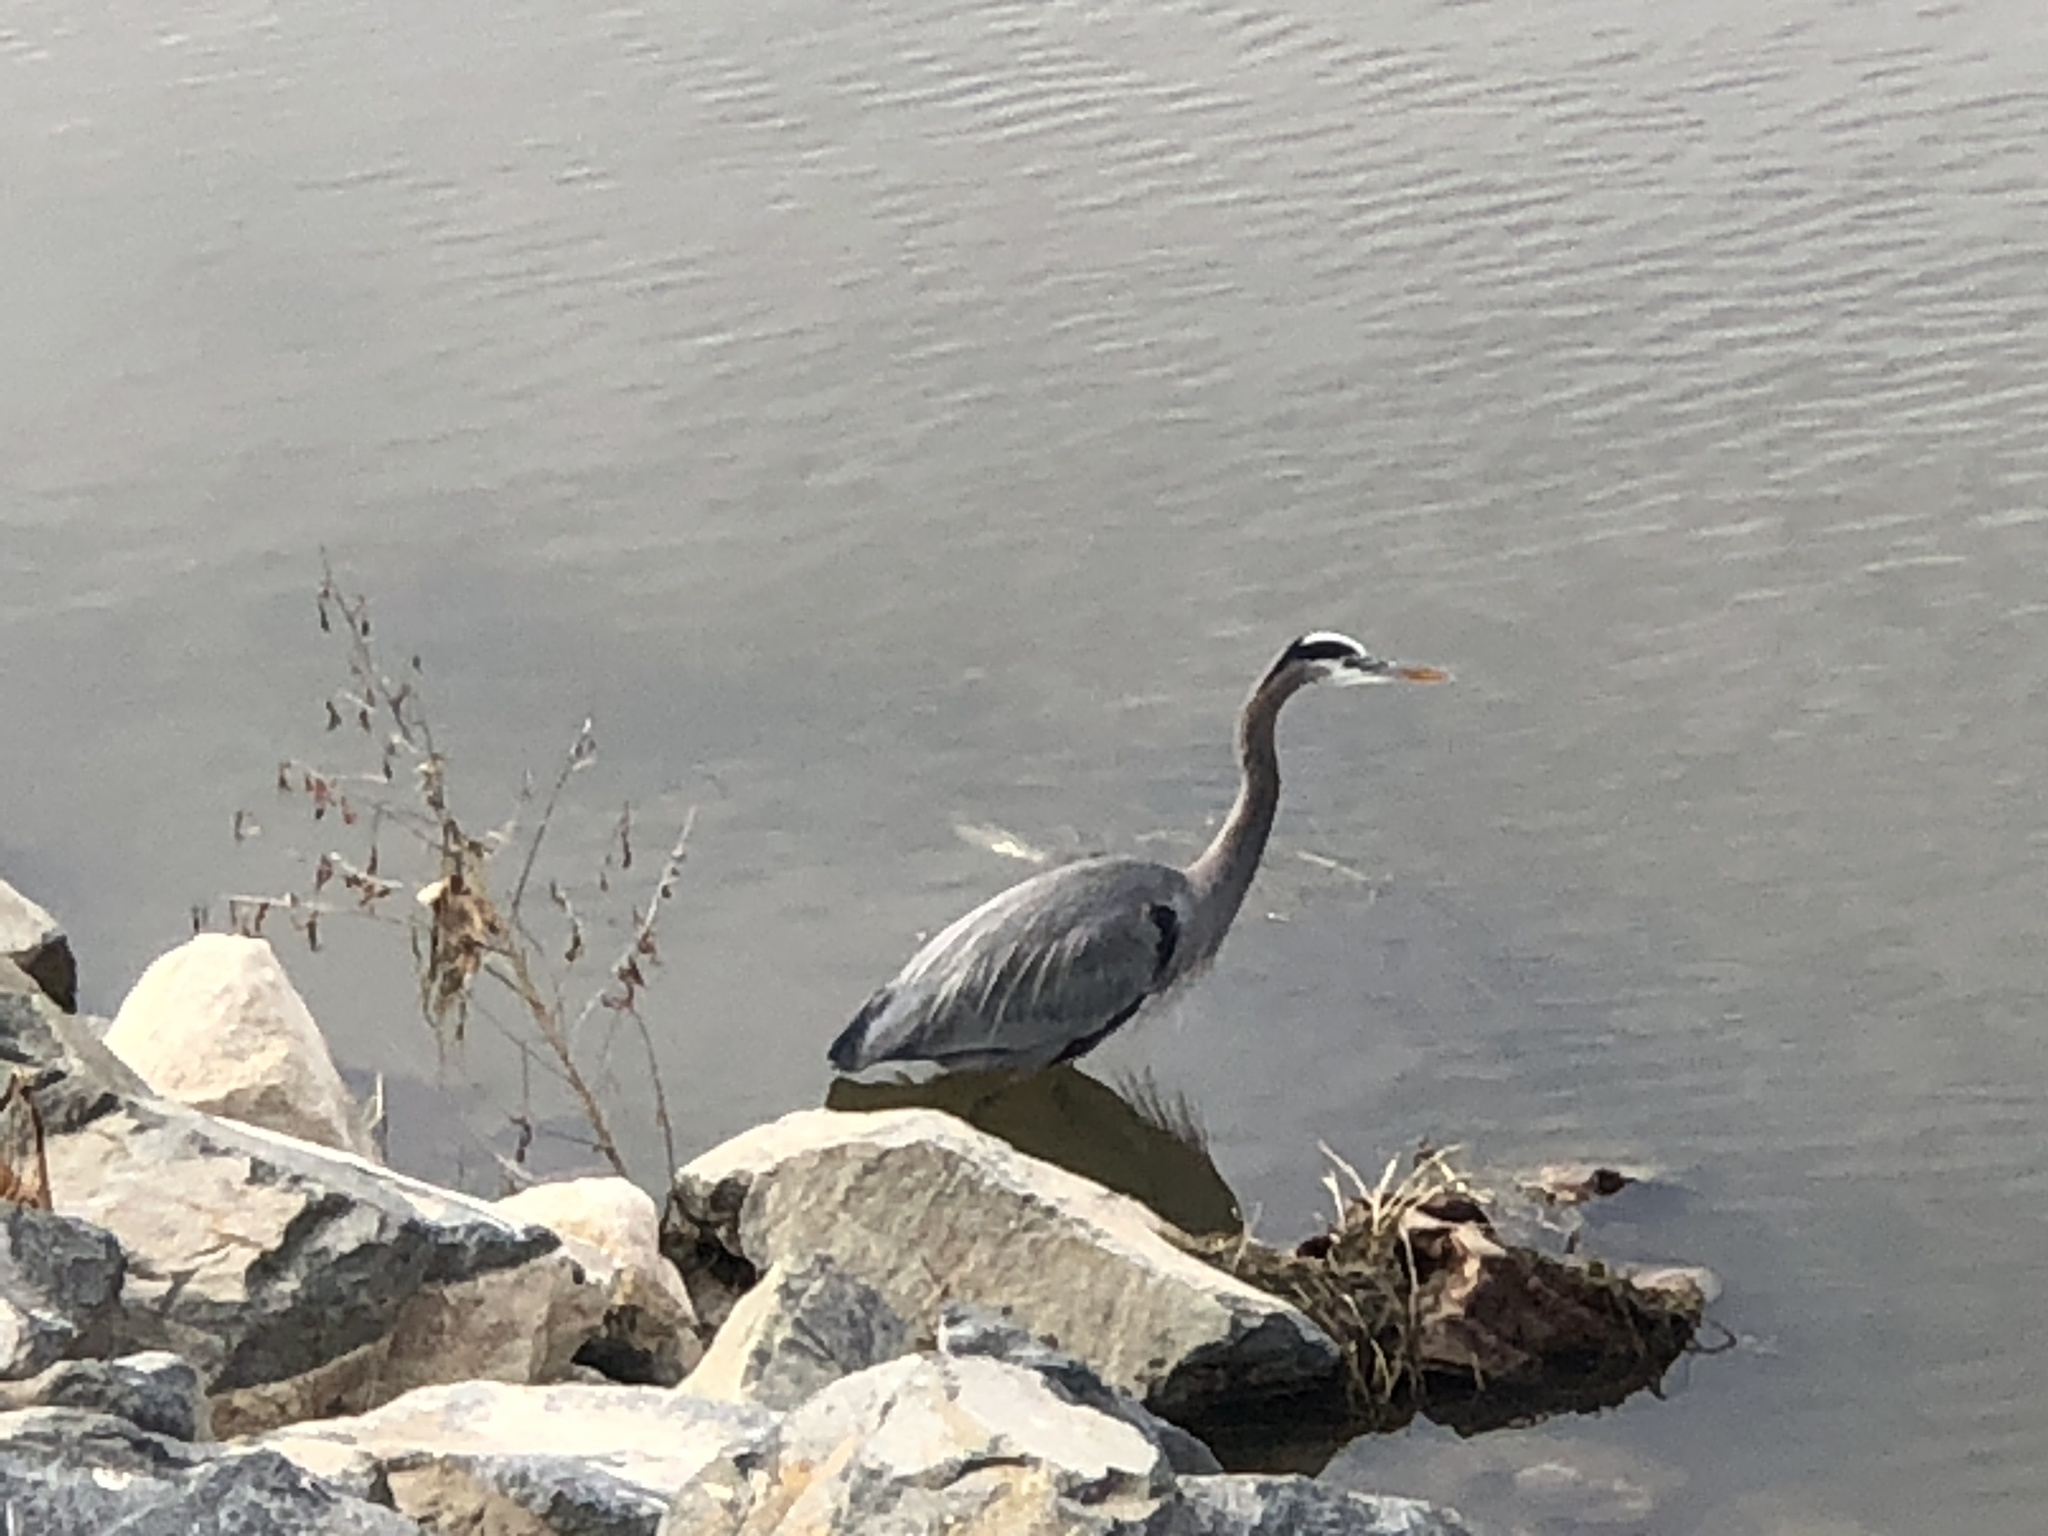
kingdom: Animalia
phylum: Chordata
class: Aves
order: Pelecaniformes
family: Ardeidae
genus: Ardea
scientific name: Ardea herodias
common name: Great blue heron
